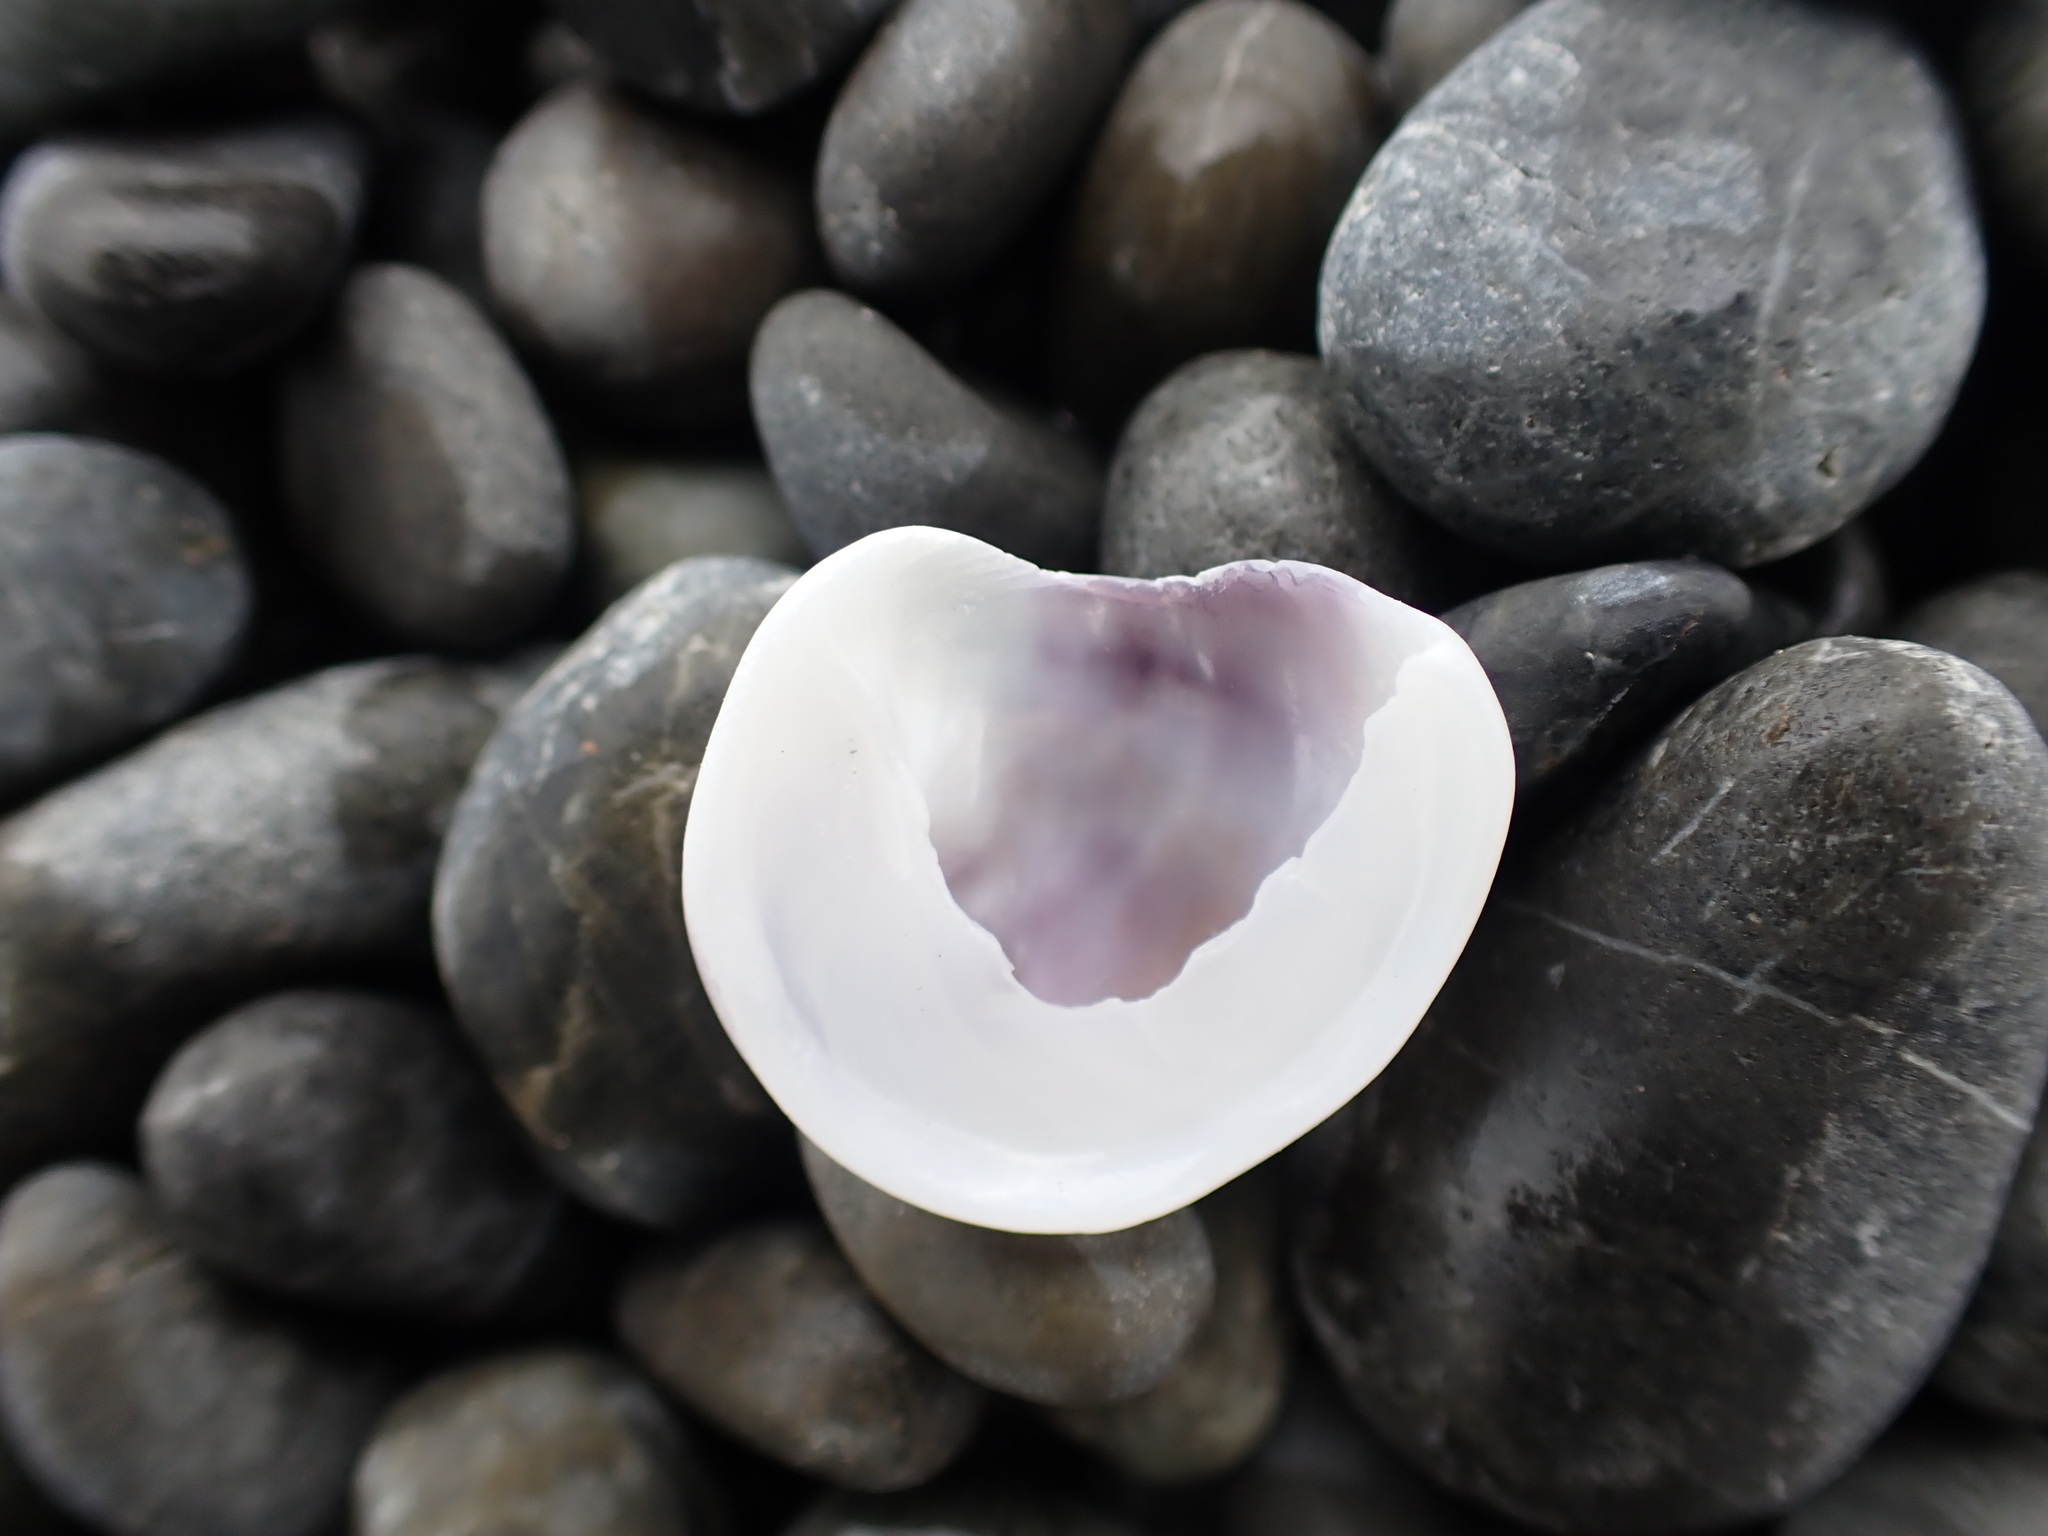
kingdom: Animalia
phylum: Mollusca
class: Gastropoda
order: Littorinimorpha
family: Calyptraeidae
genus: Sigapatella
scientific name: Sigapatella novaezelandiae
